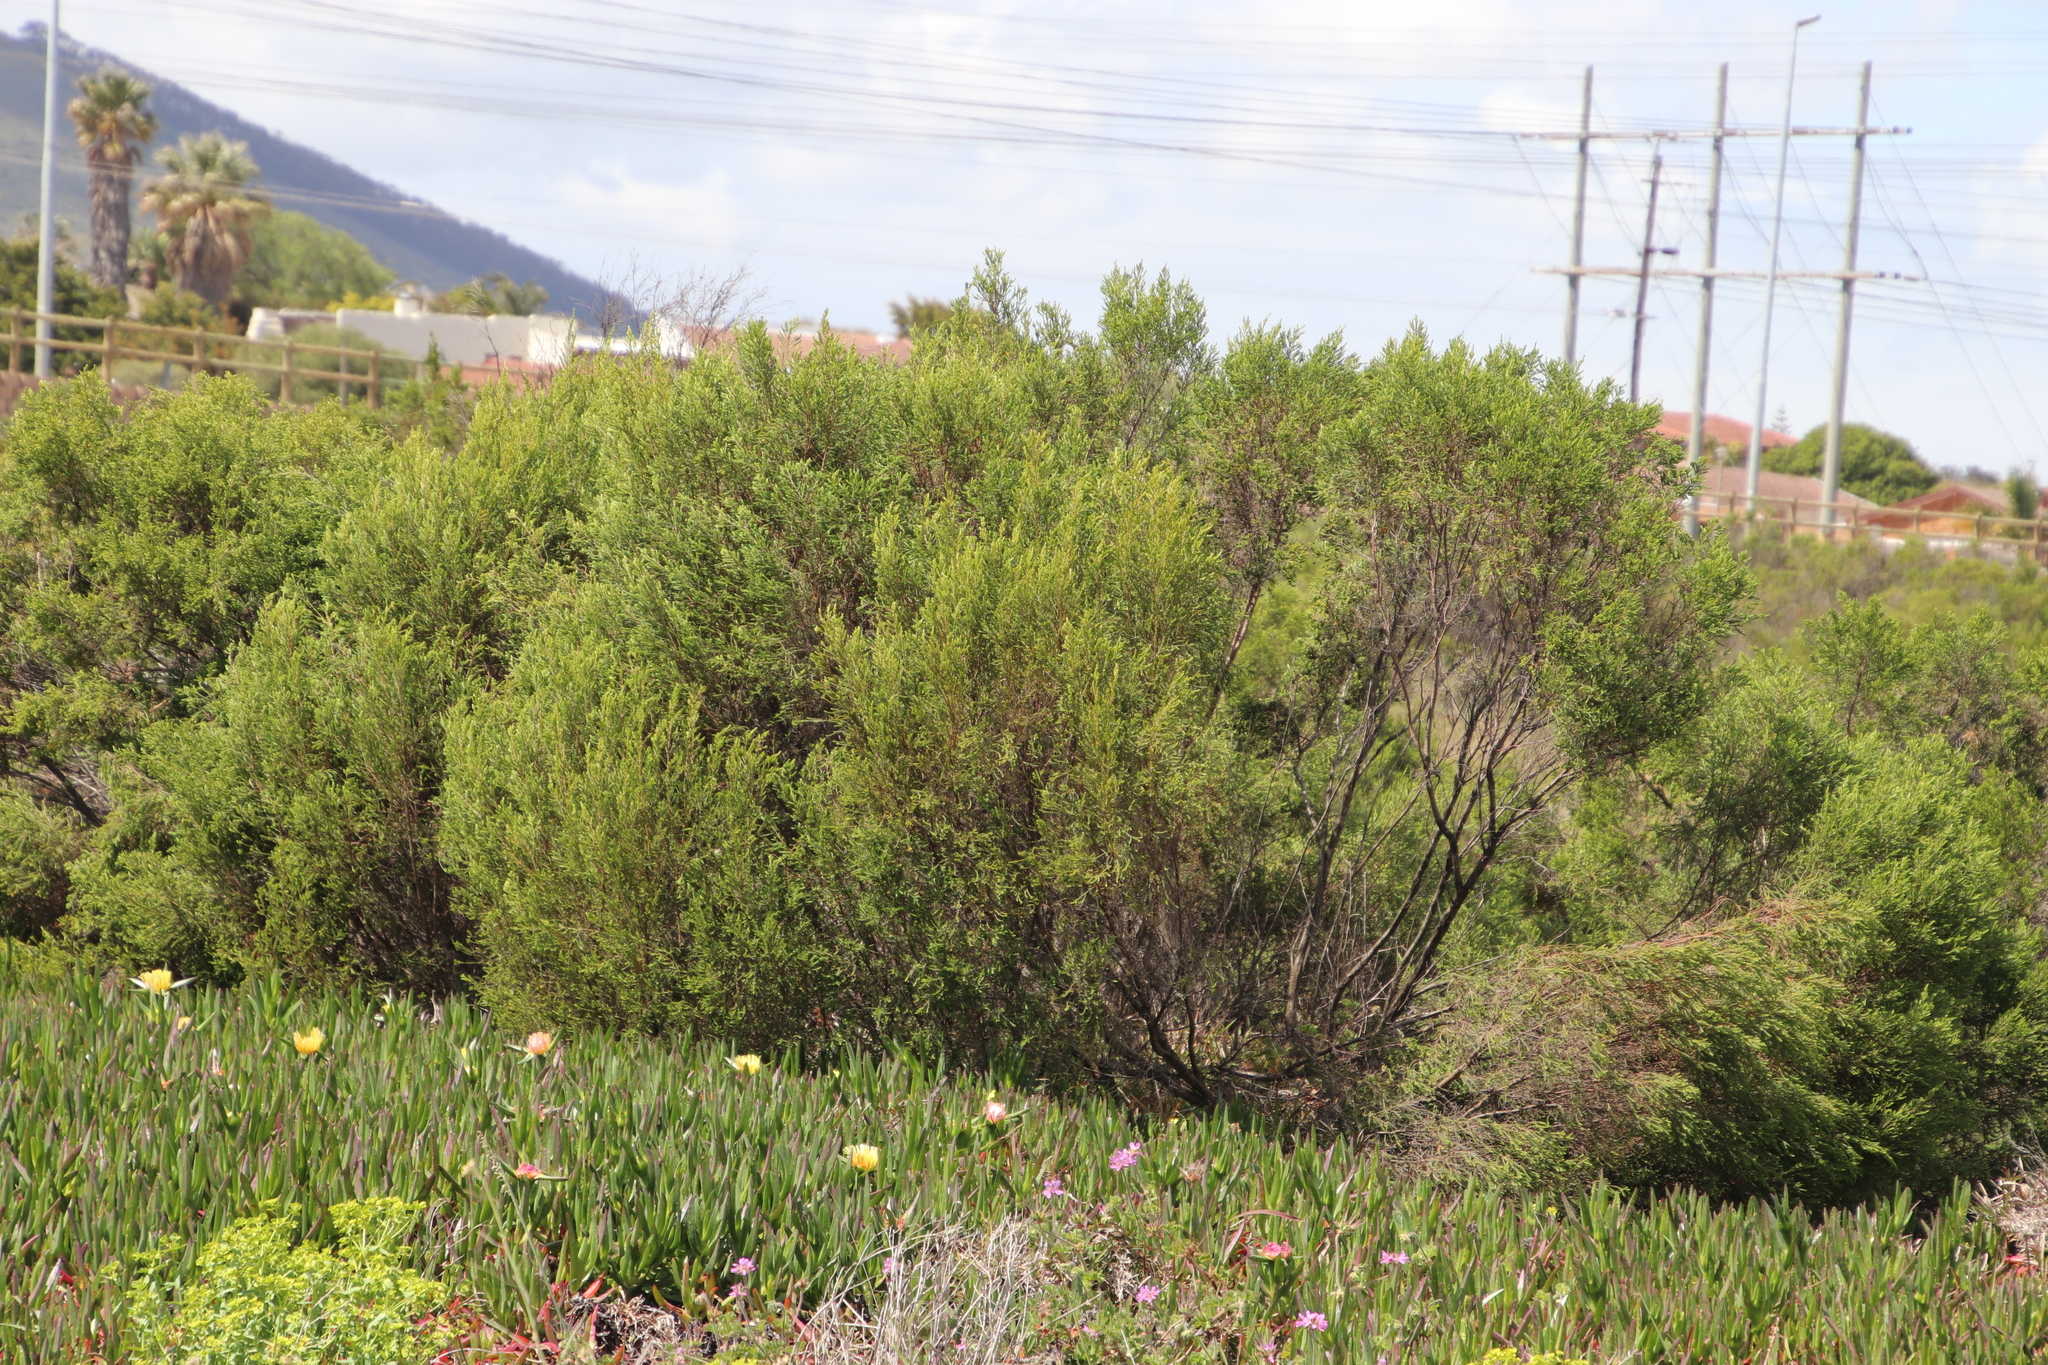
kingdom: Plantae
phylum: Tracheophyta
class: Magnoliopsida
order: Malvales
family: Thymelaeaceae
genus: Passerina
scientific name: Passerina corymbosa
